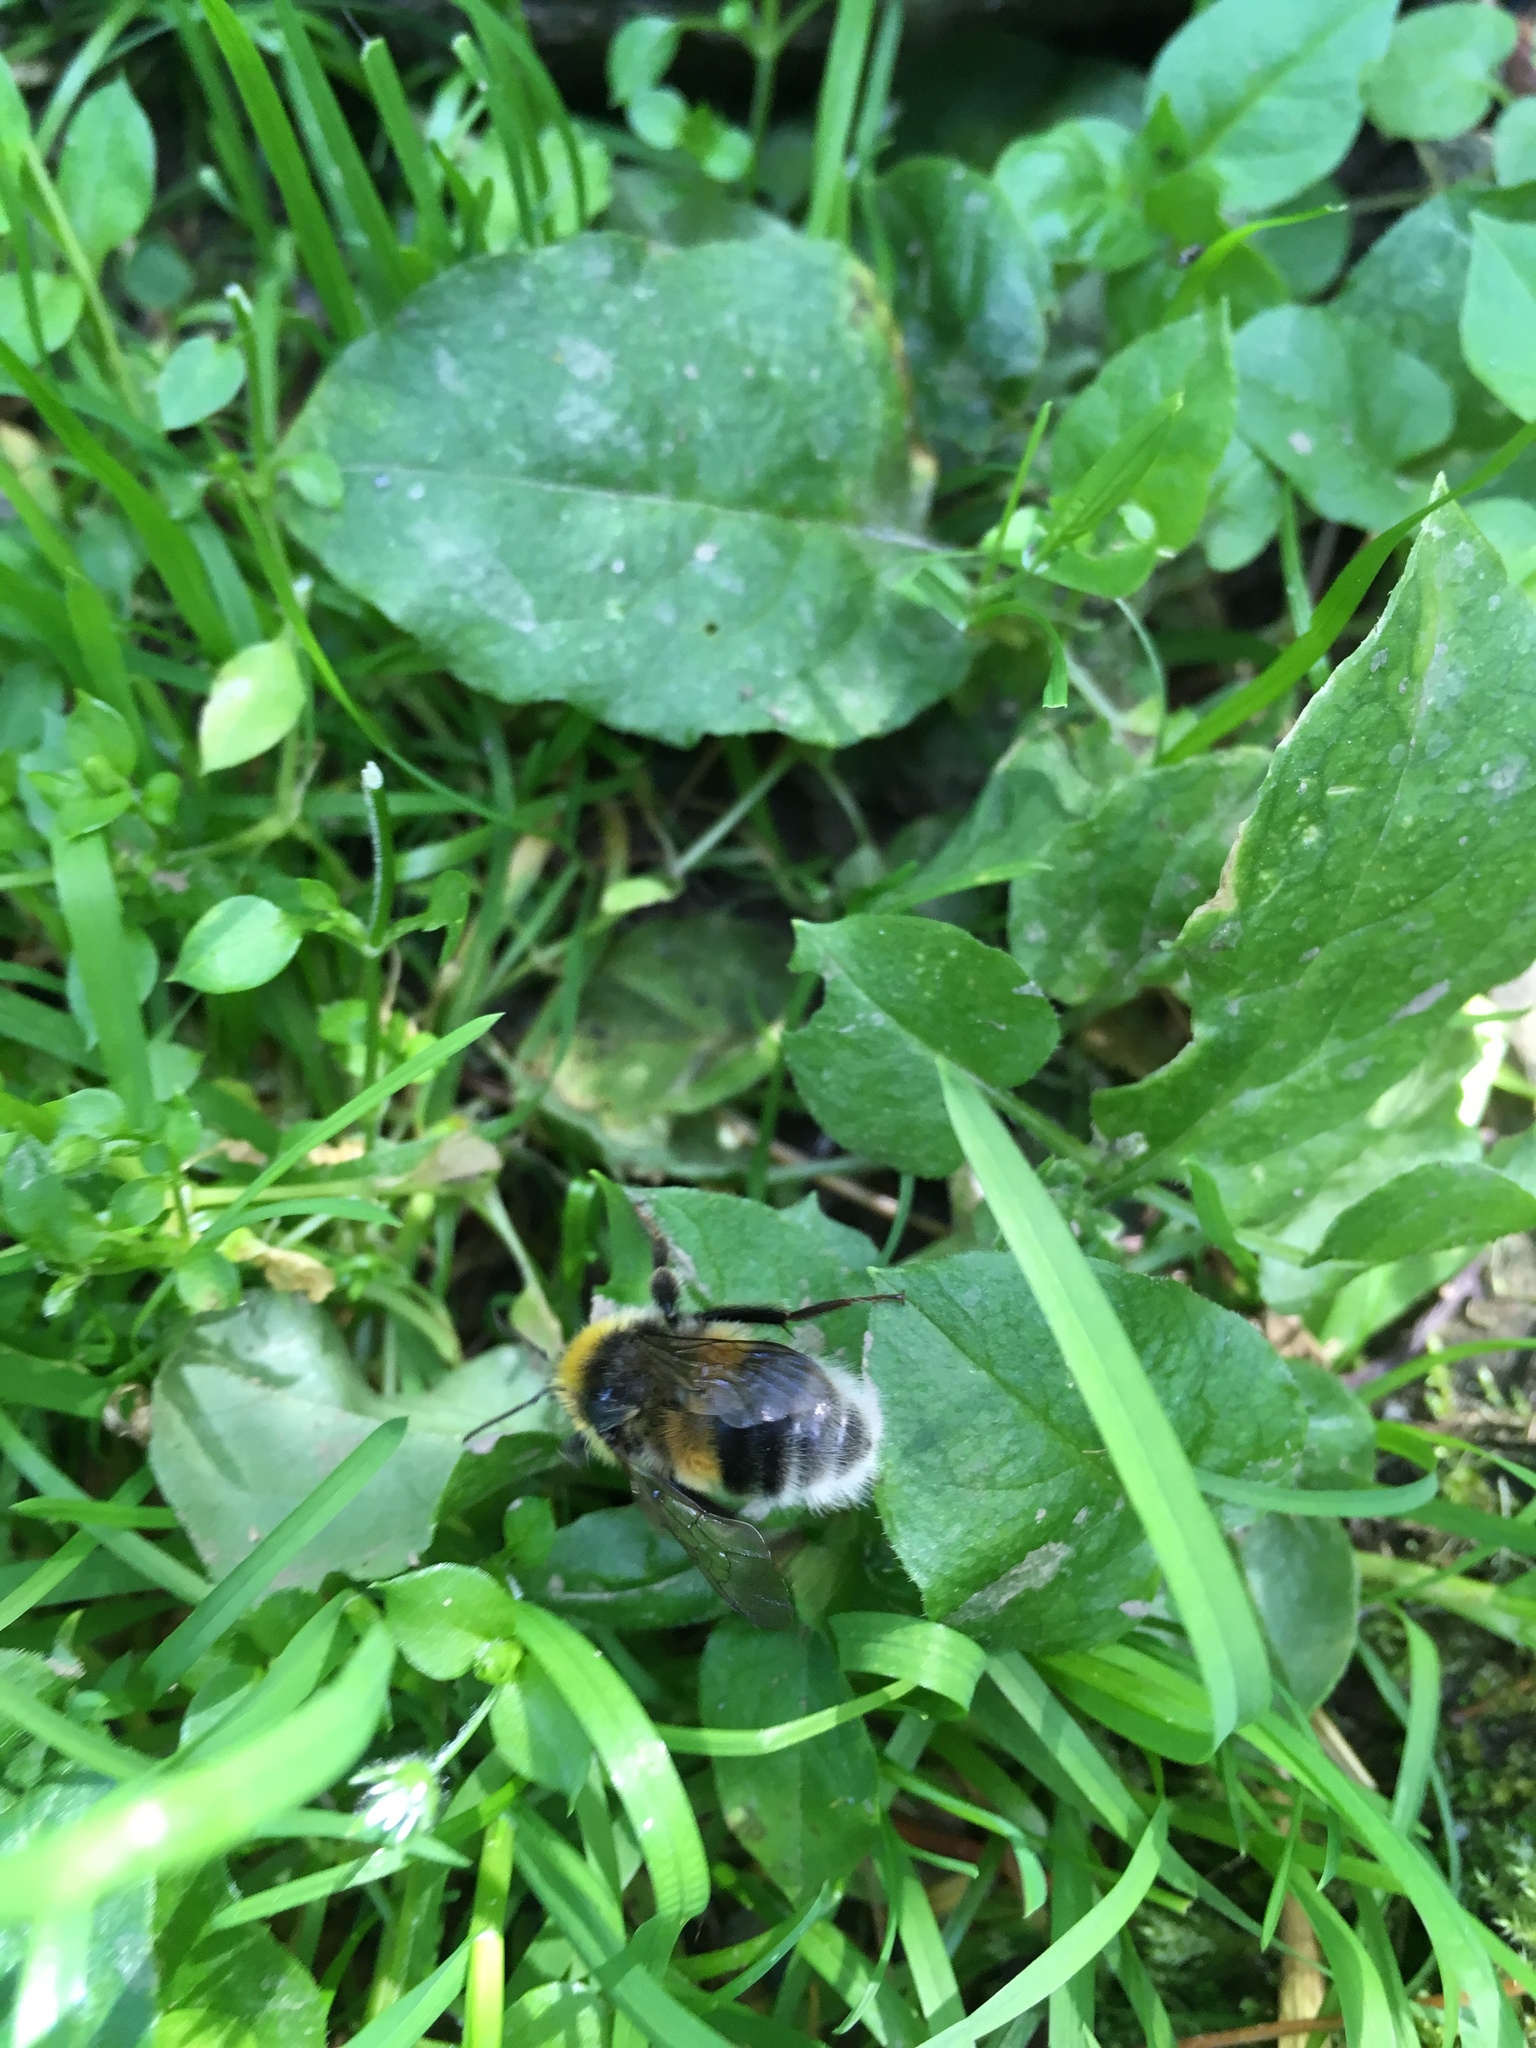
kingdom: Animalia
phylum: Arthropoda
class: Insecta
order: Hymenoptera
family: Apidae
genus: Bombus
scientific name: Bombus lucorum
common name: White-tailed bumblebee
